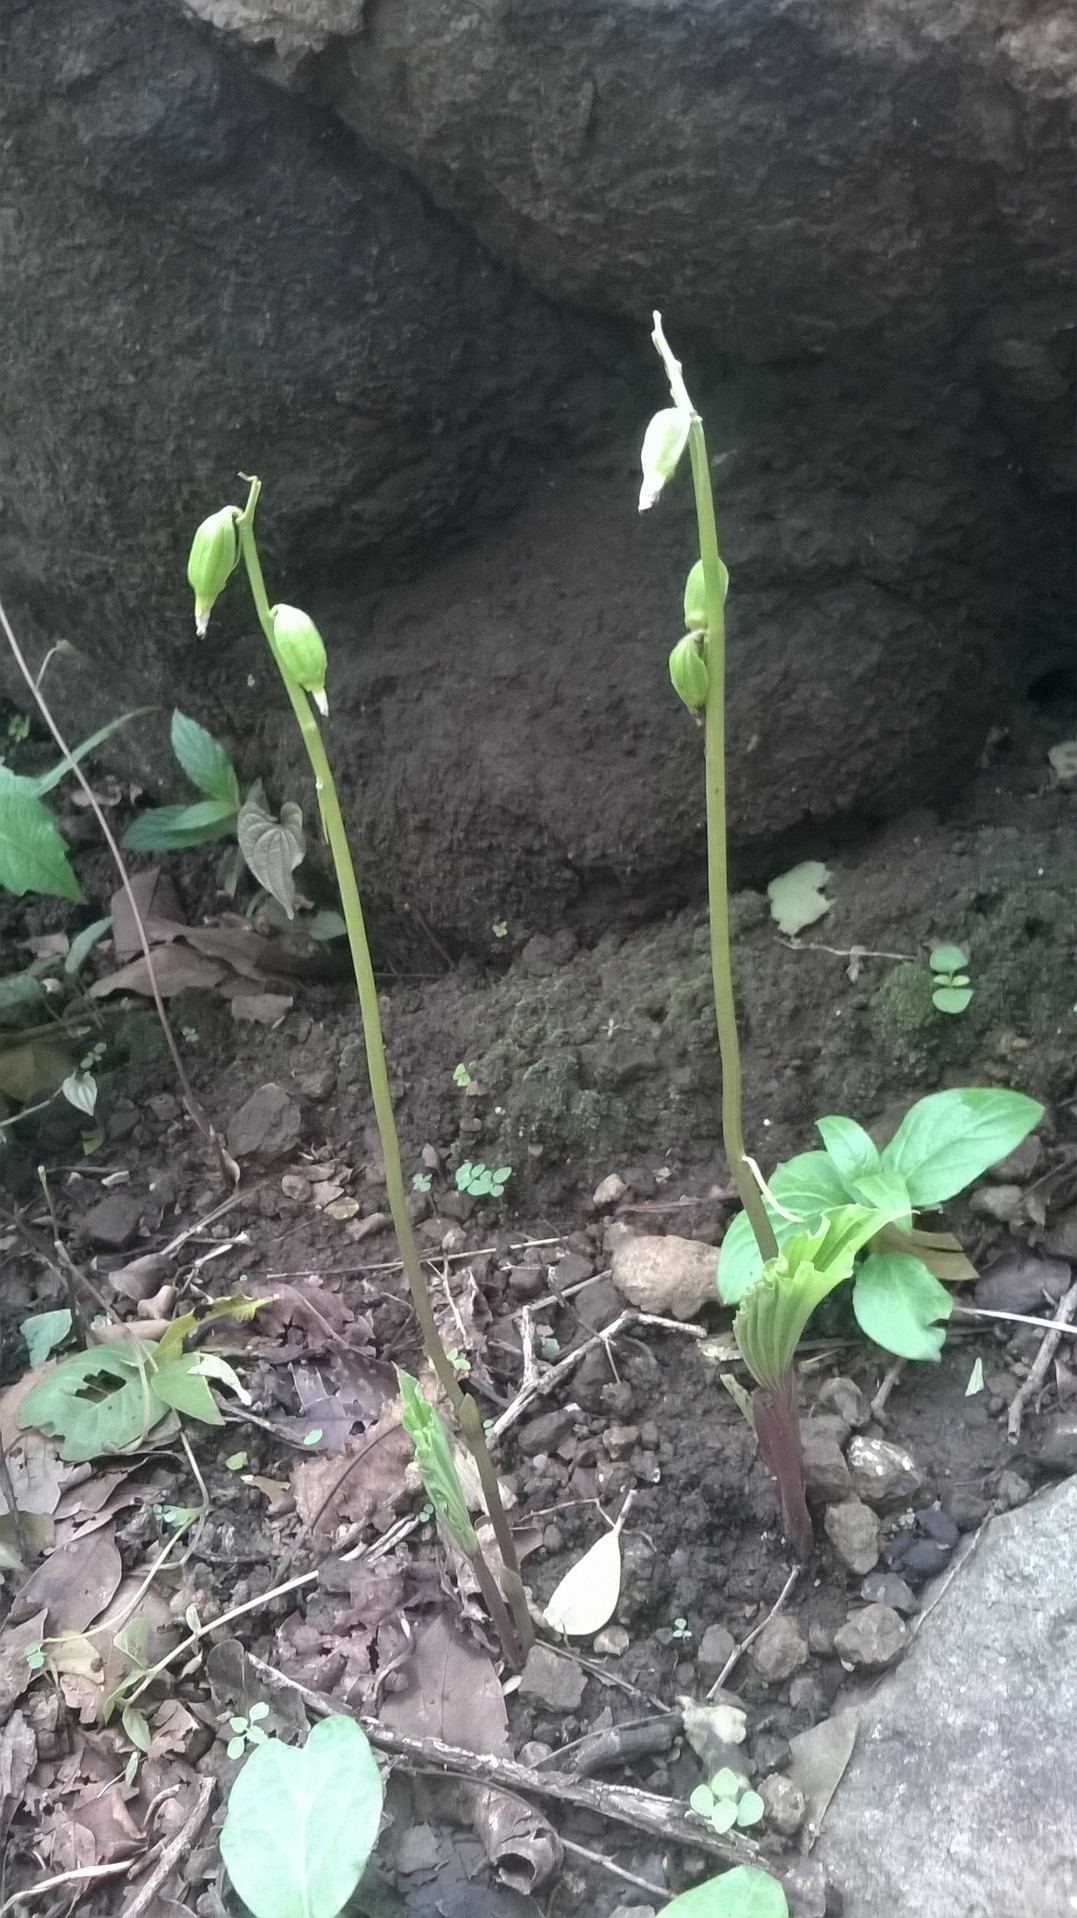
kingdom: Plantae
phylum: Tracheophyta
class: Liliopsida
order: Asparagales
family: Orchidaceae
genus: Nervilia
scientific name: Nervilia concolor
